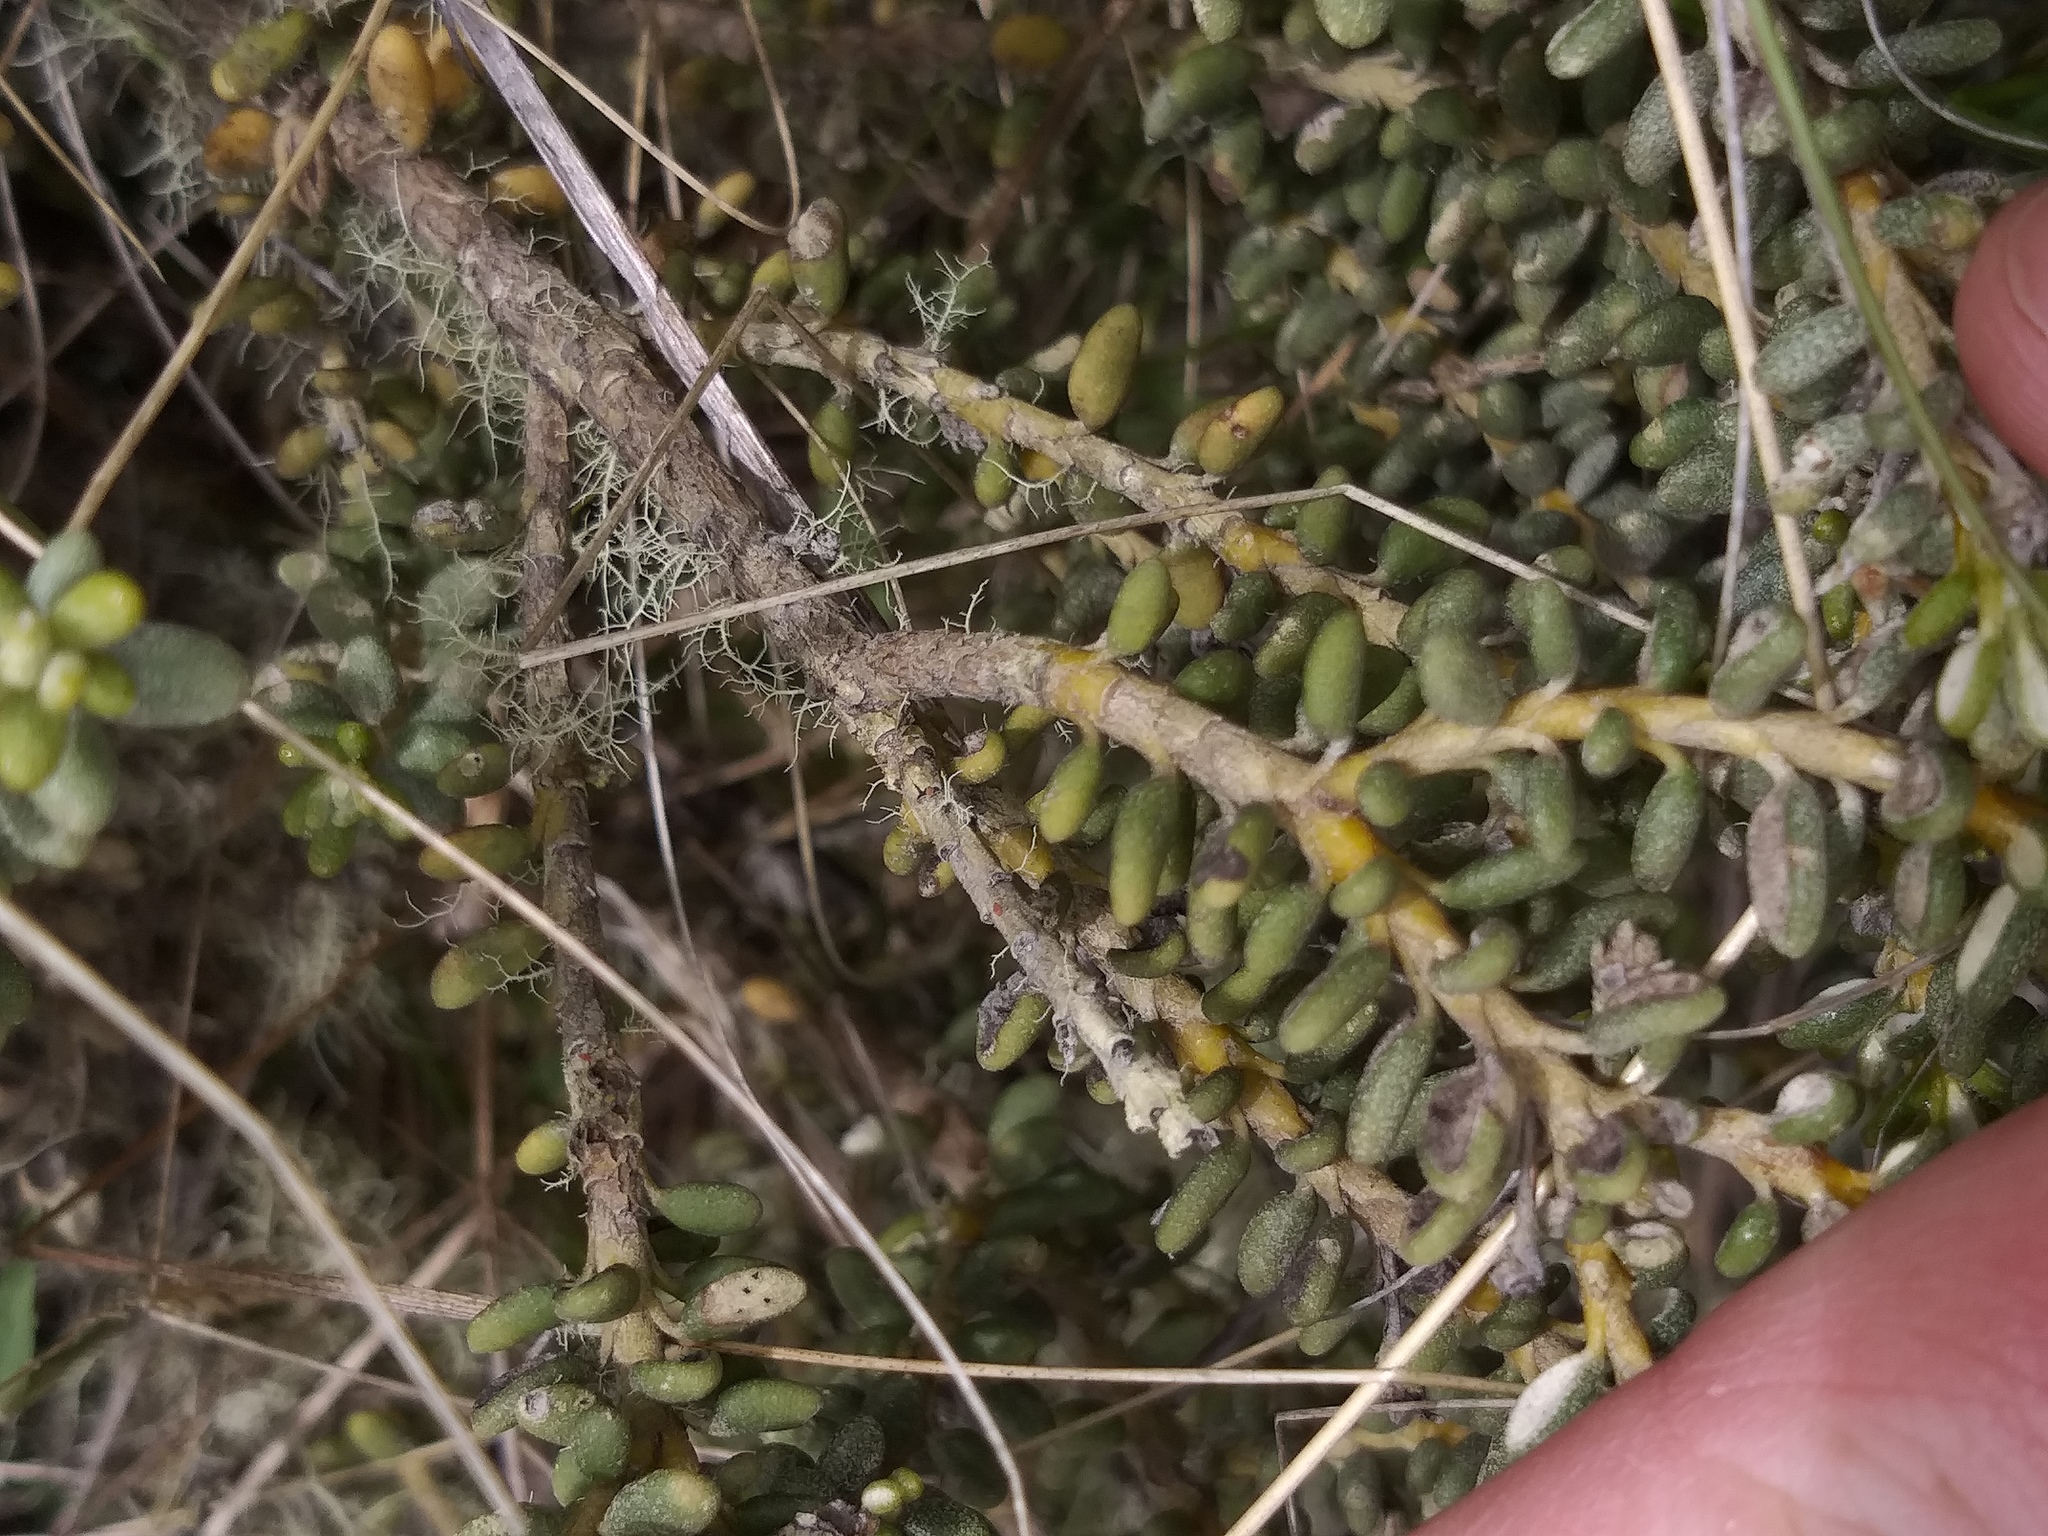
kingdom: Plantae
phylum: Tracheophyta
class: Magnoliopsida
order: Asterales
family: Asteraceae
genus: Olearia
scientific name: Olearia cymbifolia
